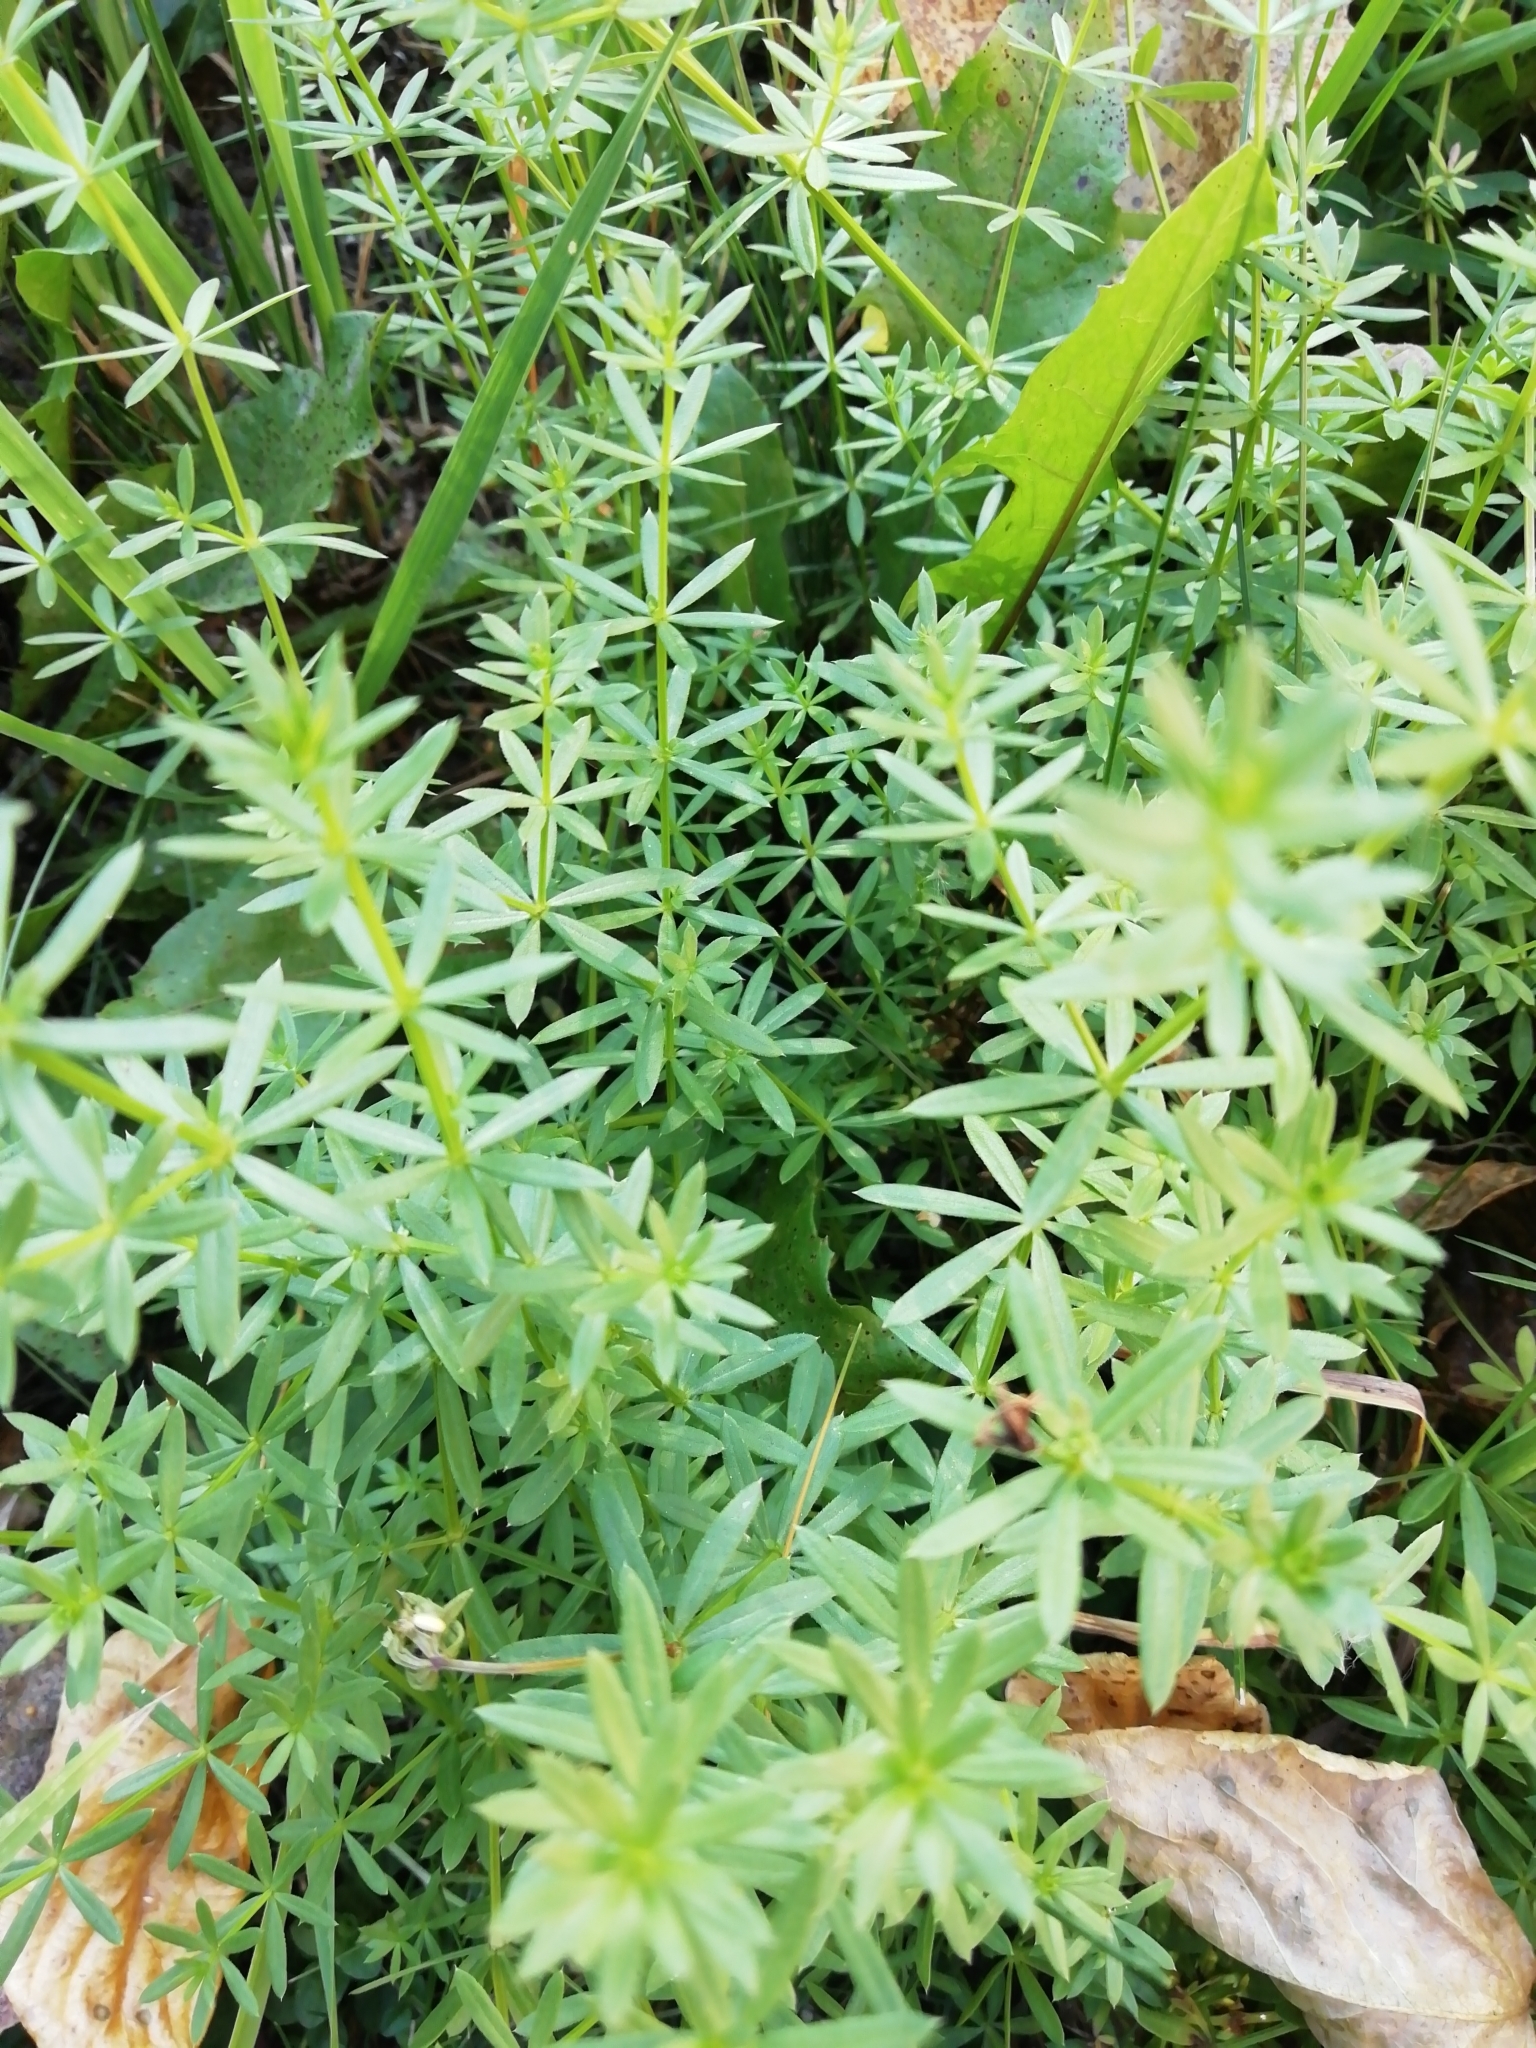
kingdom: Plantae
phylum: Tracheophyta
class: Magnoliopsida
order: Gentianales
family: Rubiaceae
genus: Galium
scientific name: Galium mollugo
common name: Hedge bedstraw
